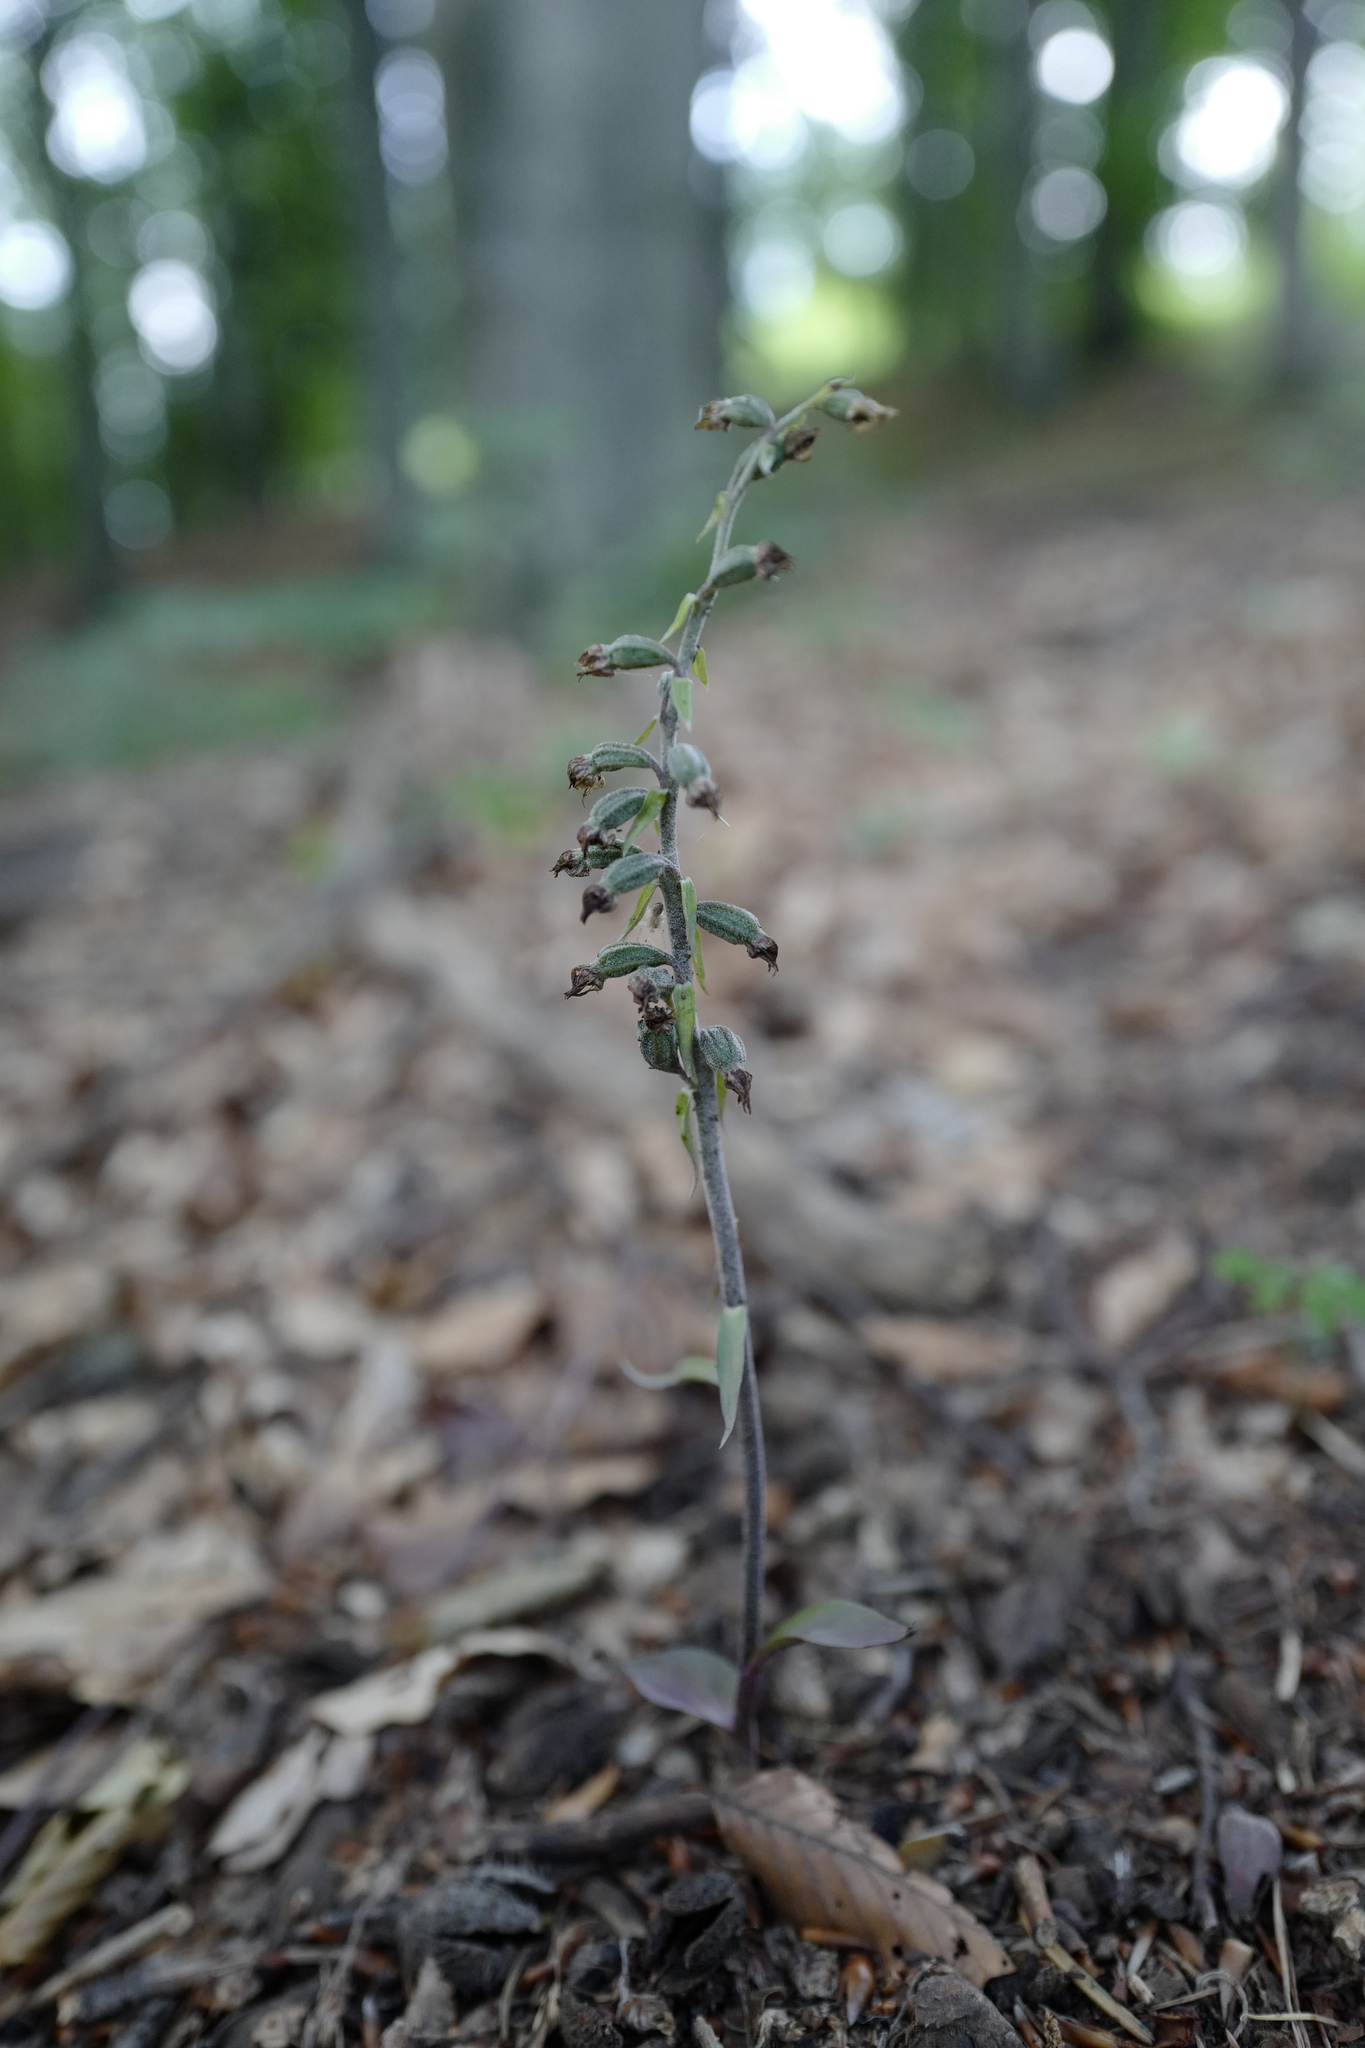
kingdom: Plantae
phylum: Tracheophyta
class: Liliopsida
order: Asparagales
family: Orchidaceae
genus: Epipactis
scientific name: Epipactis microphylla
